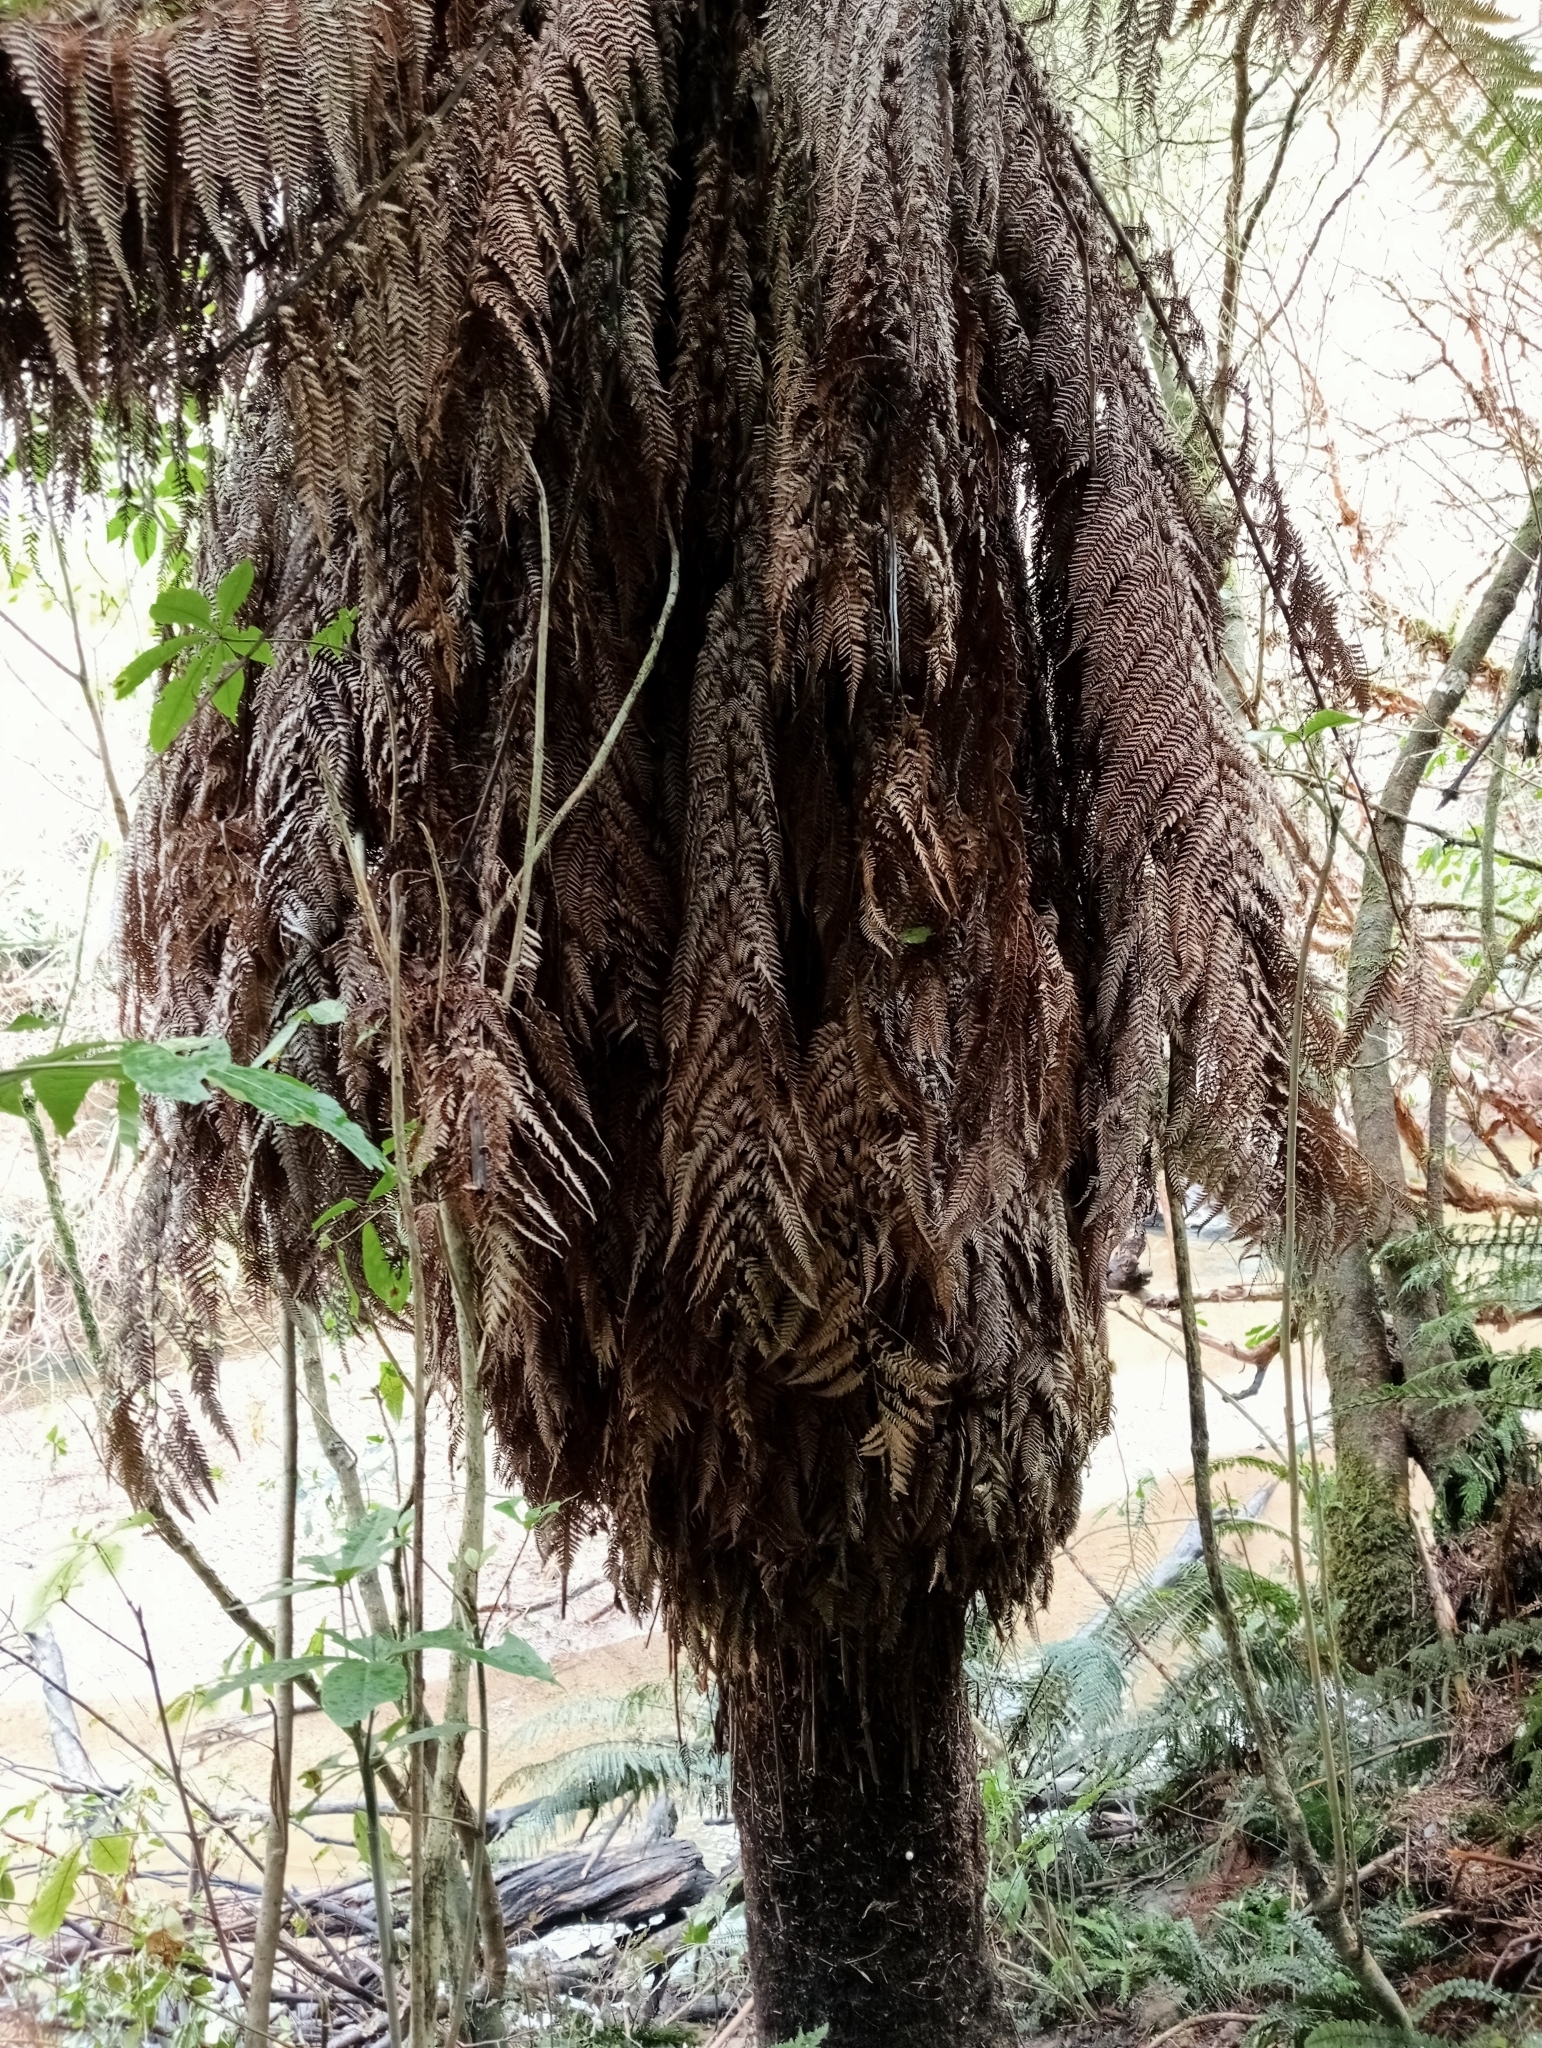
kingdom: Plantae
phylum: Tracheophyta
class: Polypodiopsida
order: Cyatheales
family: Dicksoniaceae
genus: Dicksonia
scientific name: Dicksonia fibrosa
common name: Golden tree fern
